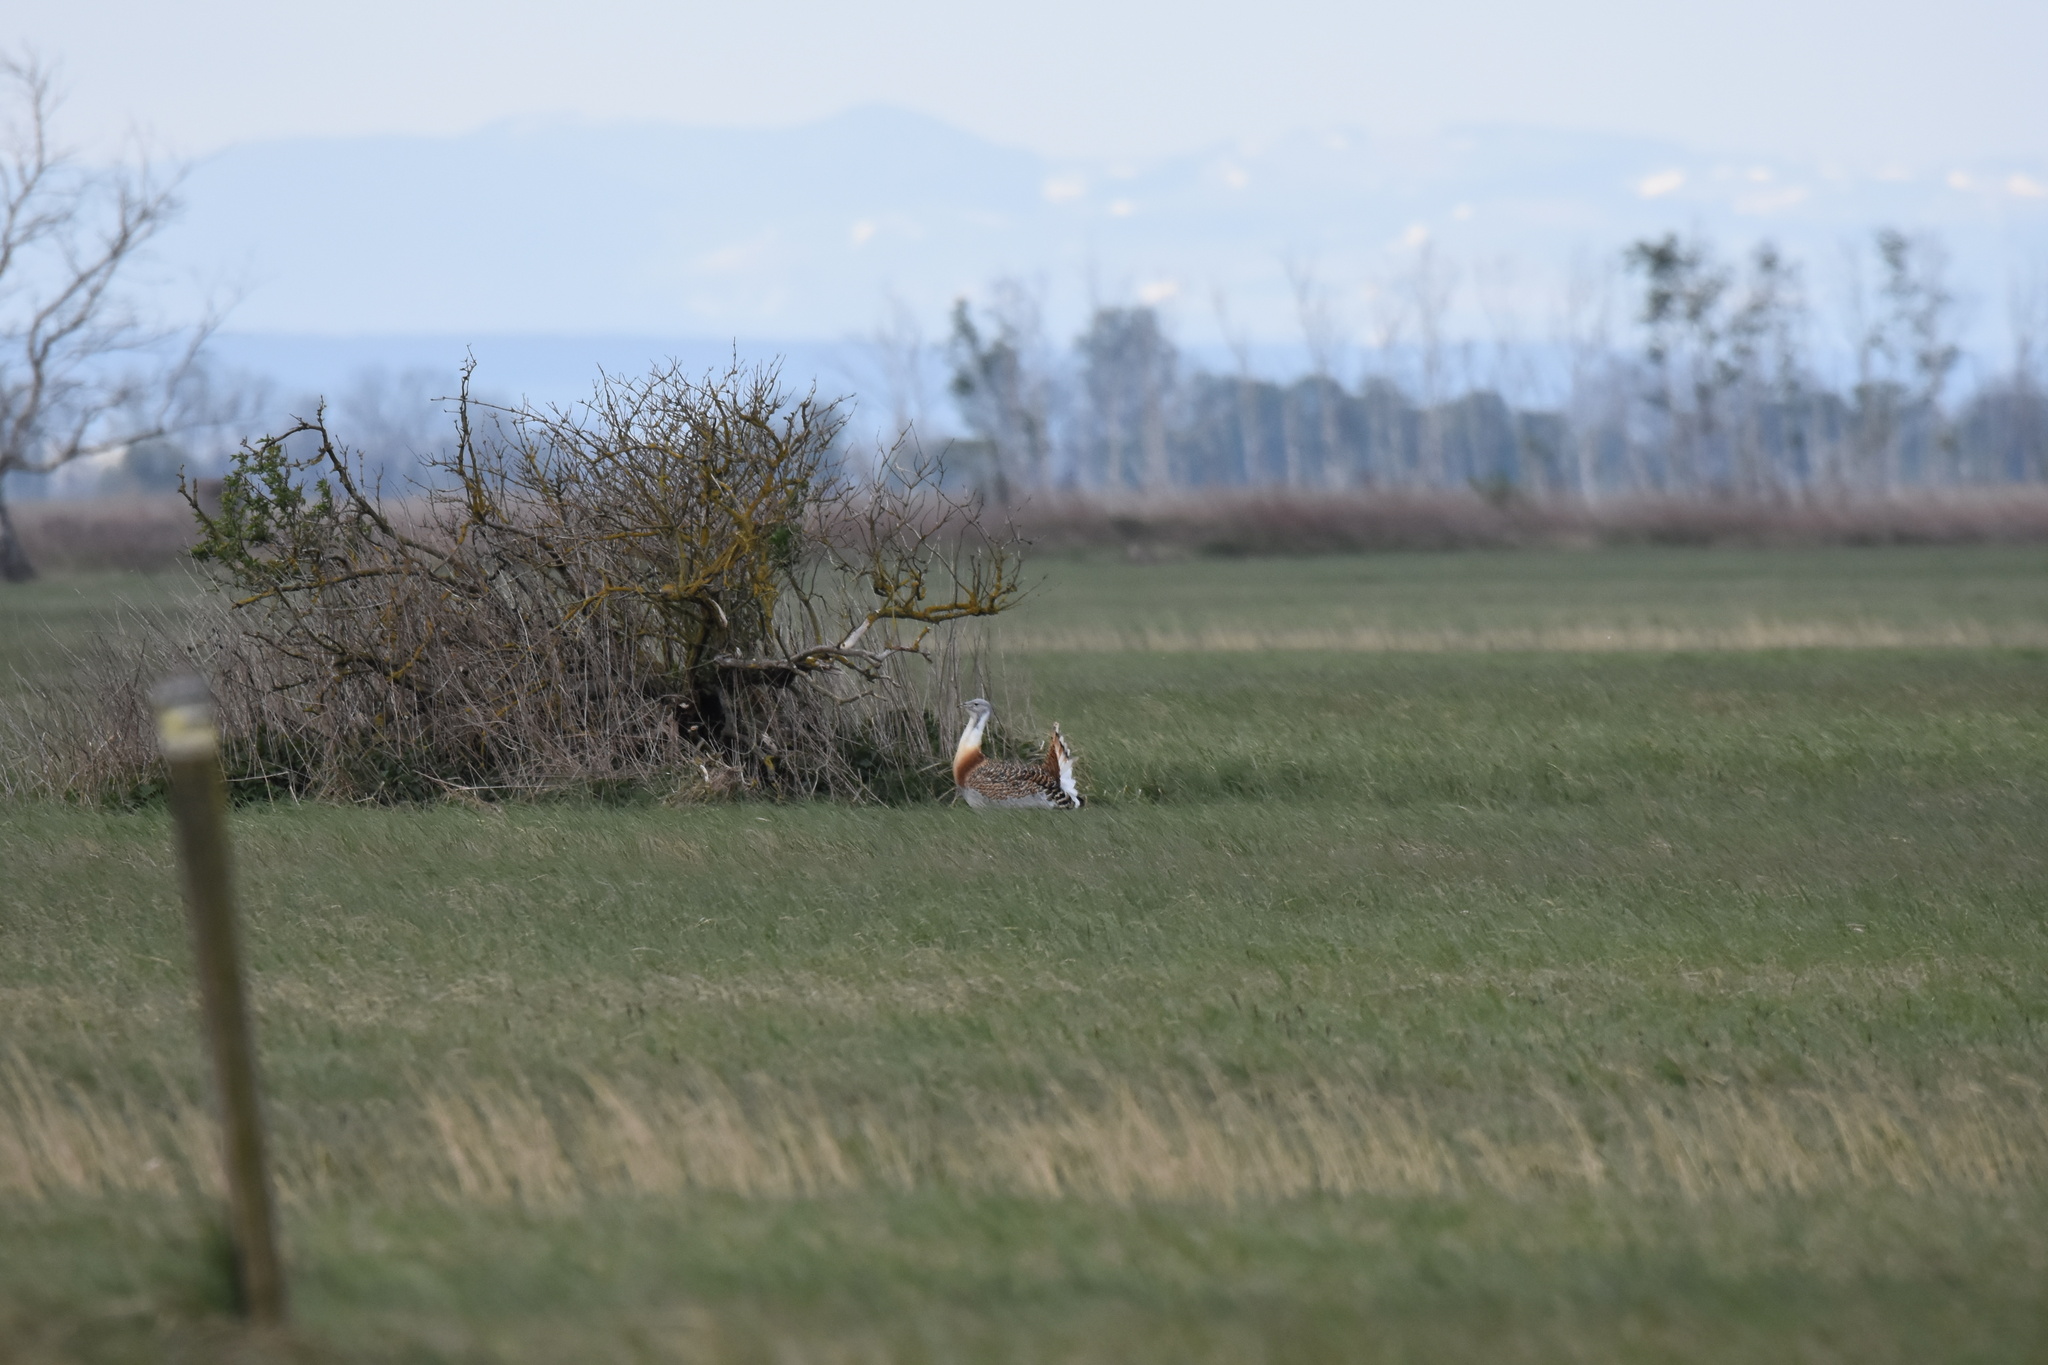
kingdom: Animalia
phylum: Chordata
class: Aves
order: Otidiformes
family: Otididae
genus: Otis
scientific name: Otis tarda
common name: Great bustard
